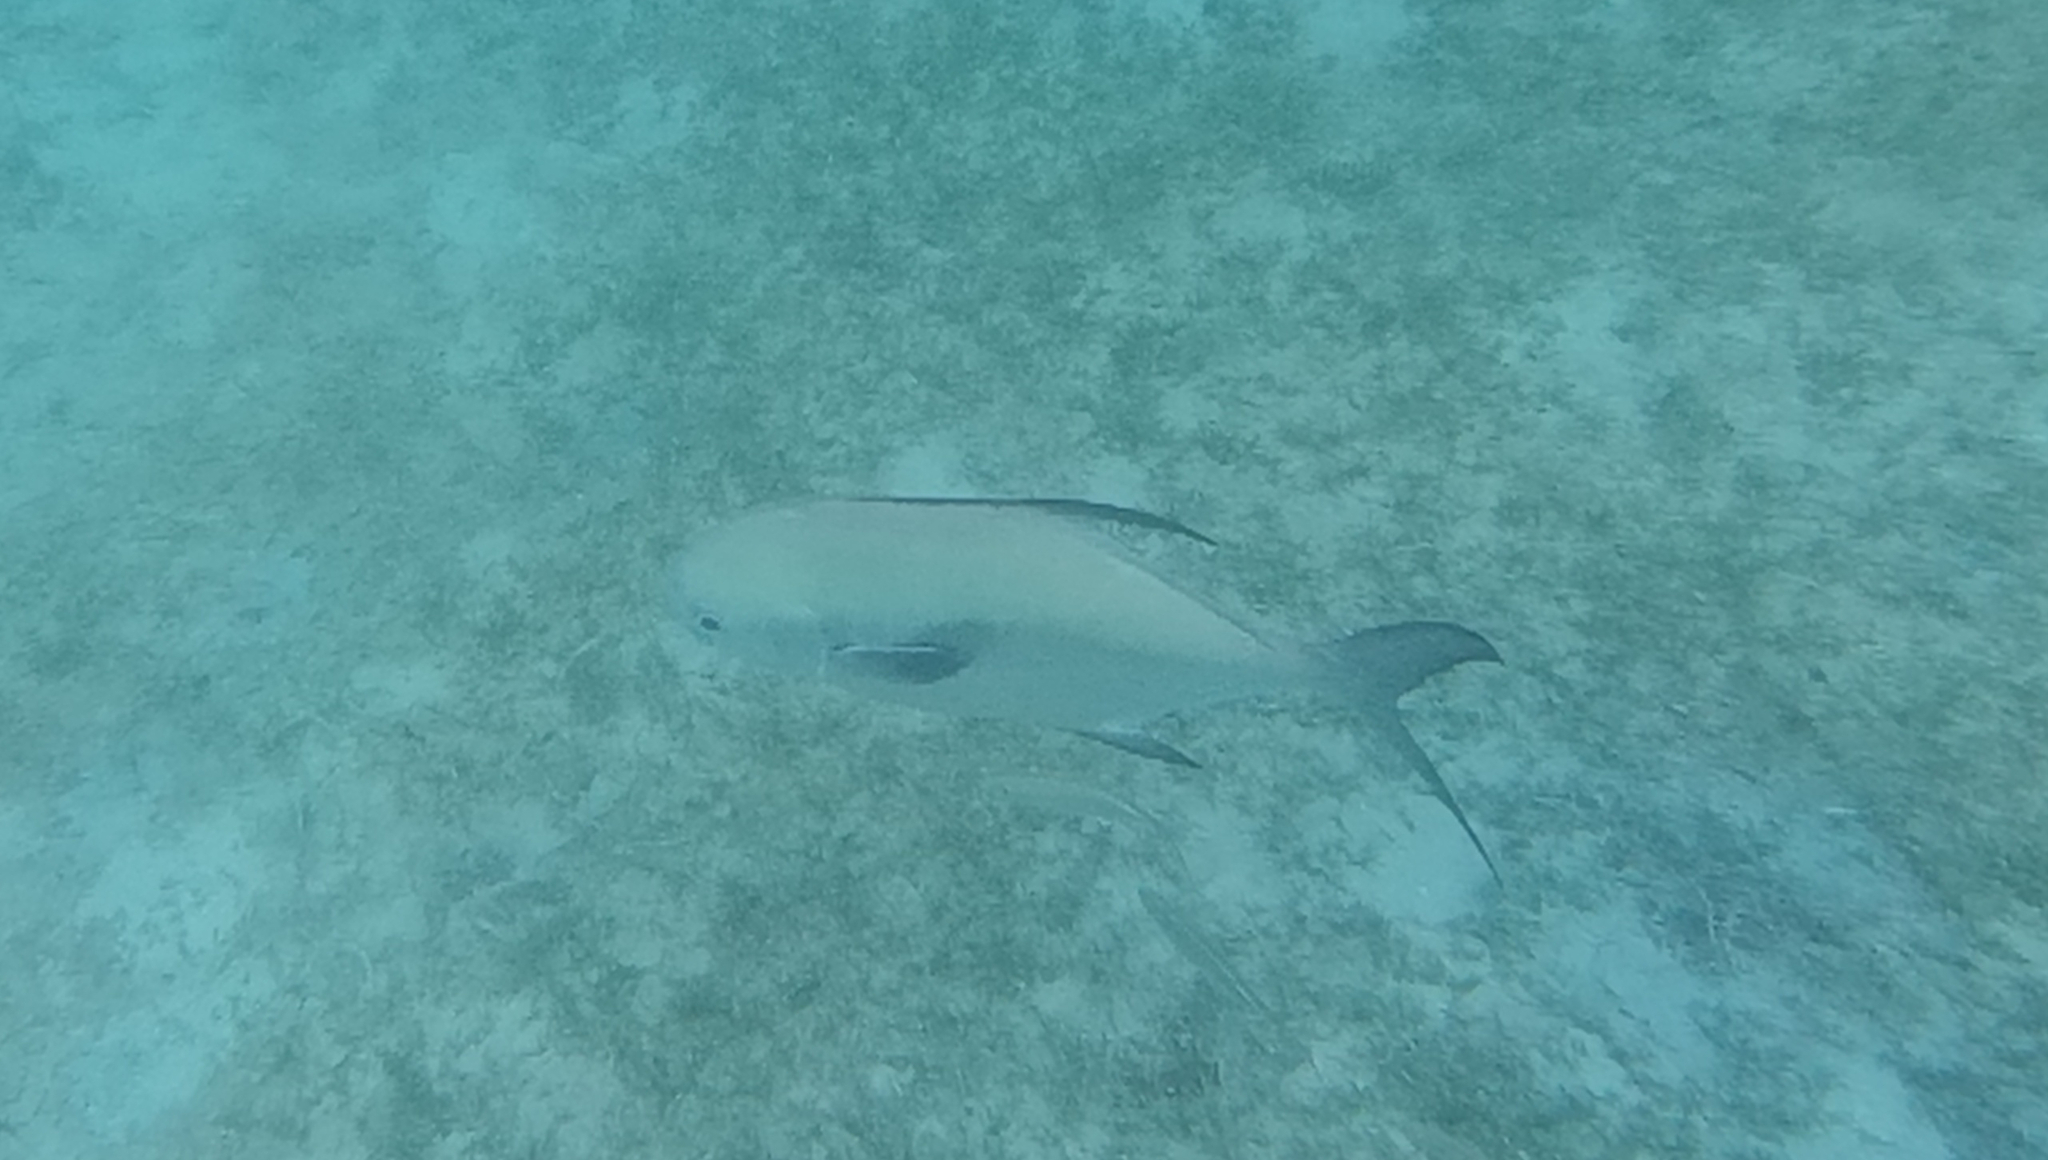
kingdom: Animalia
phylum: Chordata
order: Perciformes
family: Carangidae
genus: Trachinotus
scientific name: Trachinotus falcatus
